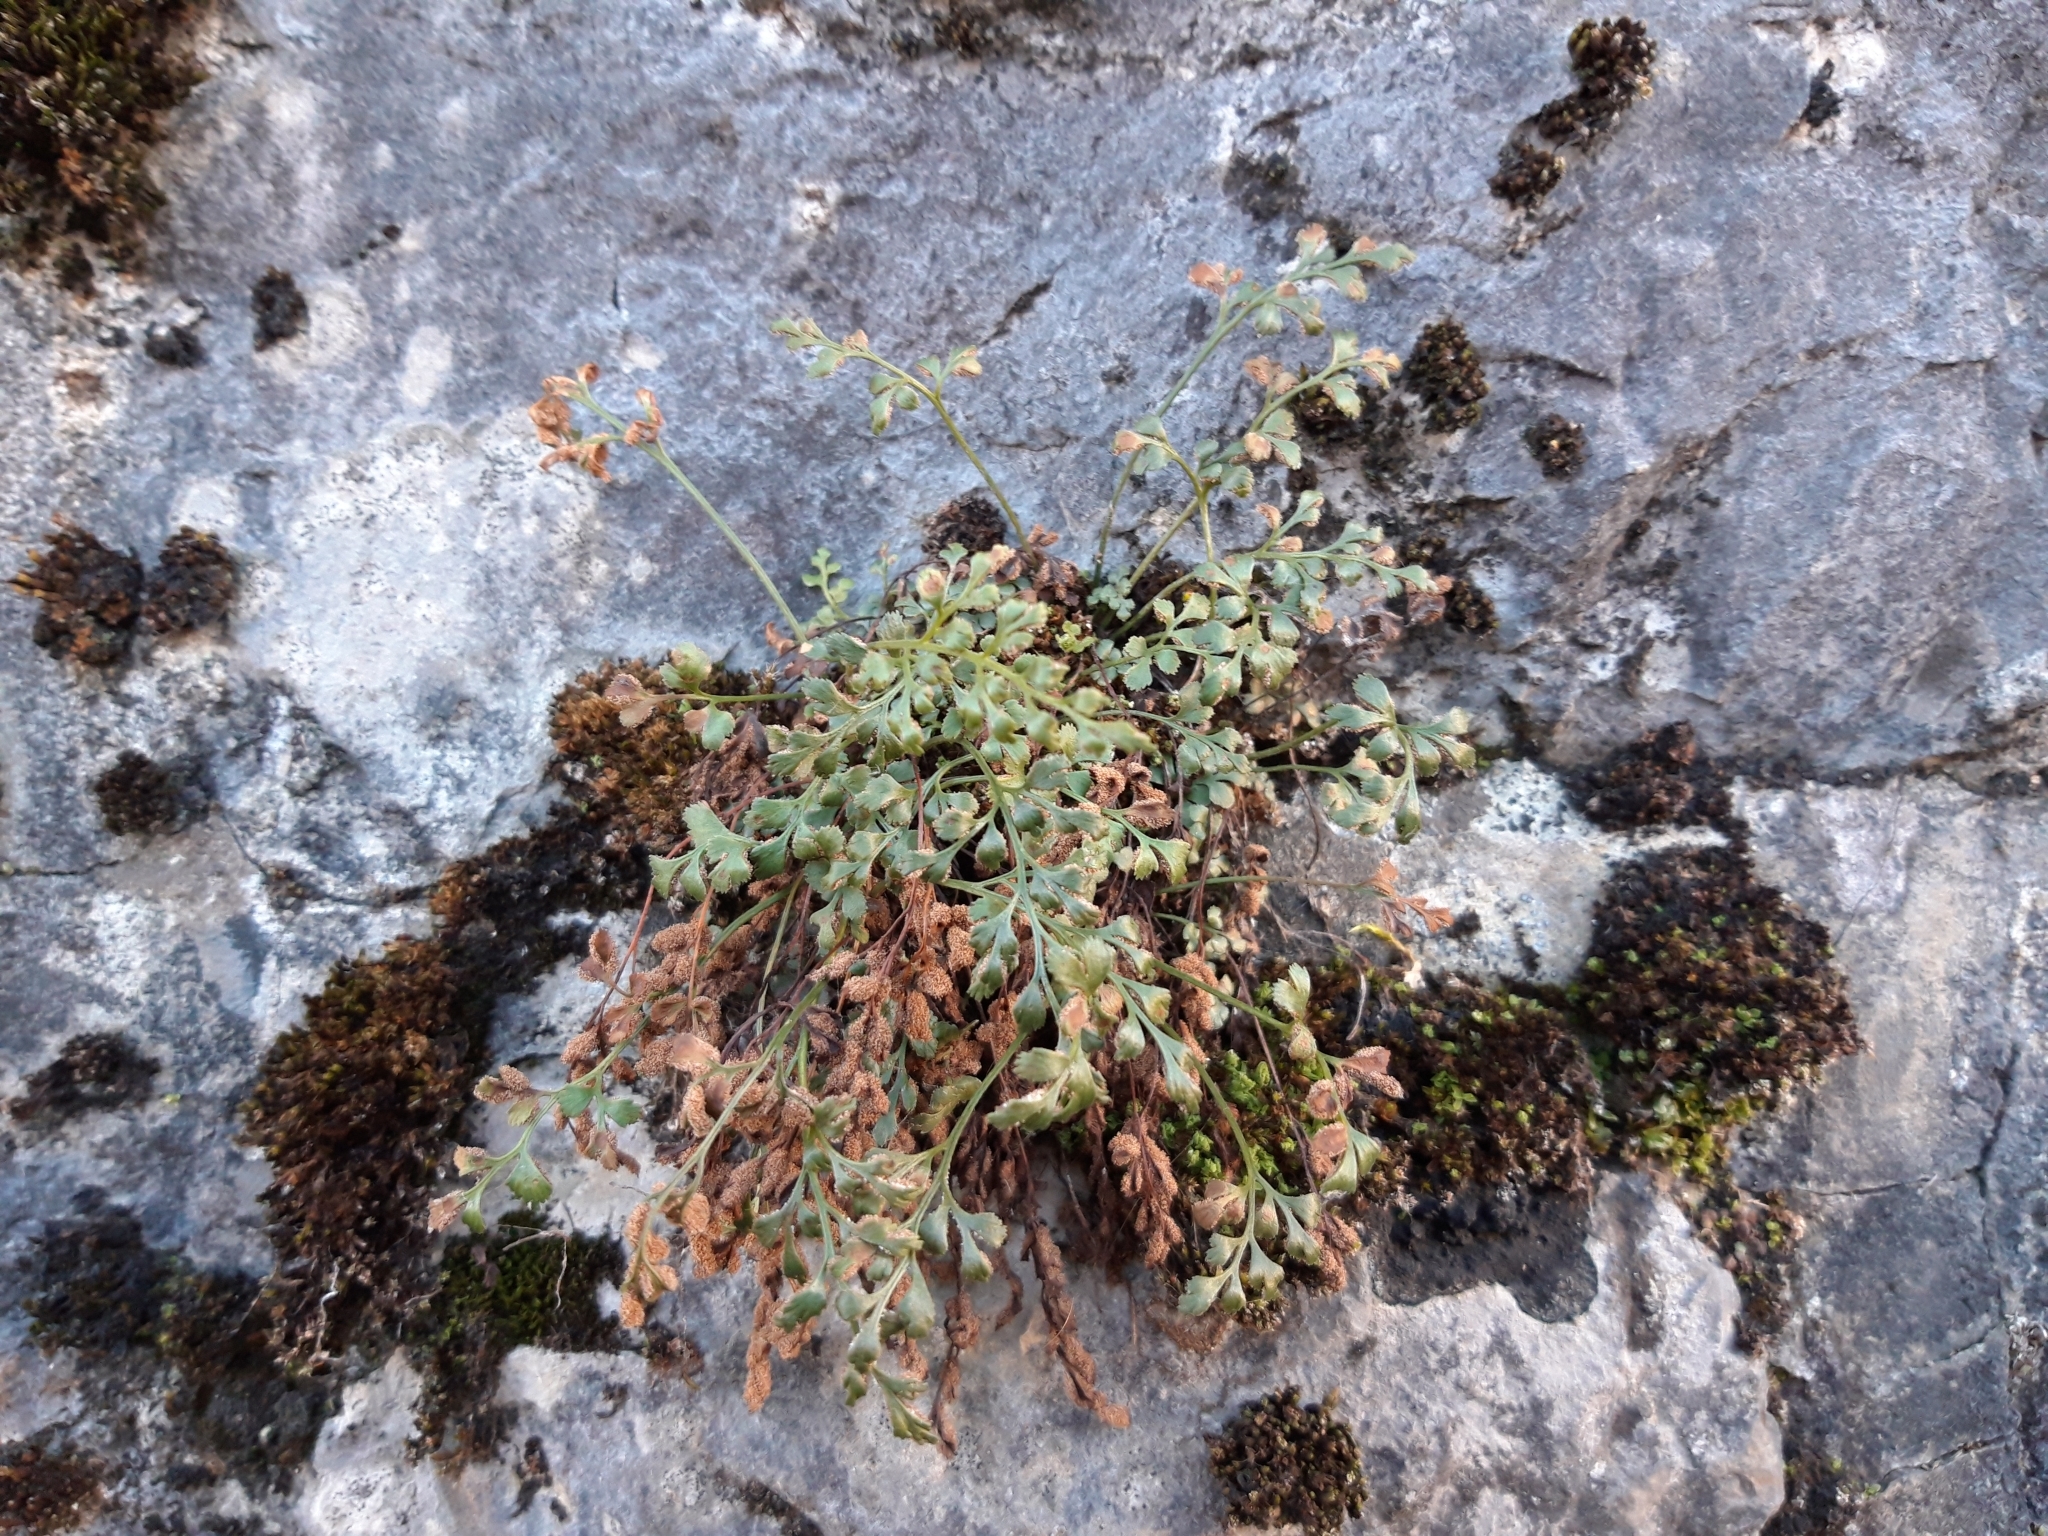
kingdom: Plantae
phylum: Tracheophyta
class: Polypodiopsida
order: Polypodiales
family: Aspleniaceae
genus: Asplenium
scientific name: Asplenium ruta-muraria
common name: Wall-rue
